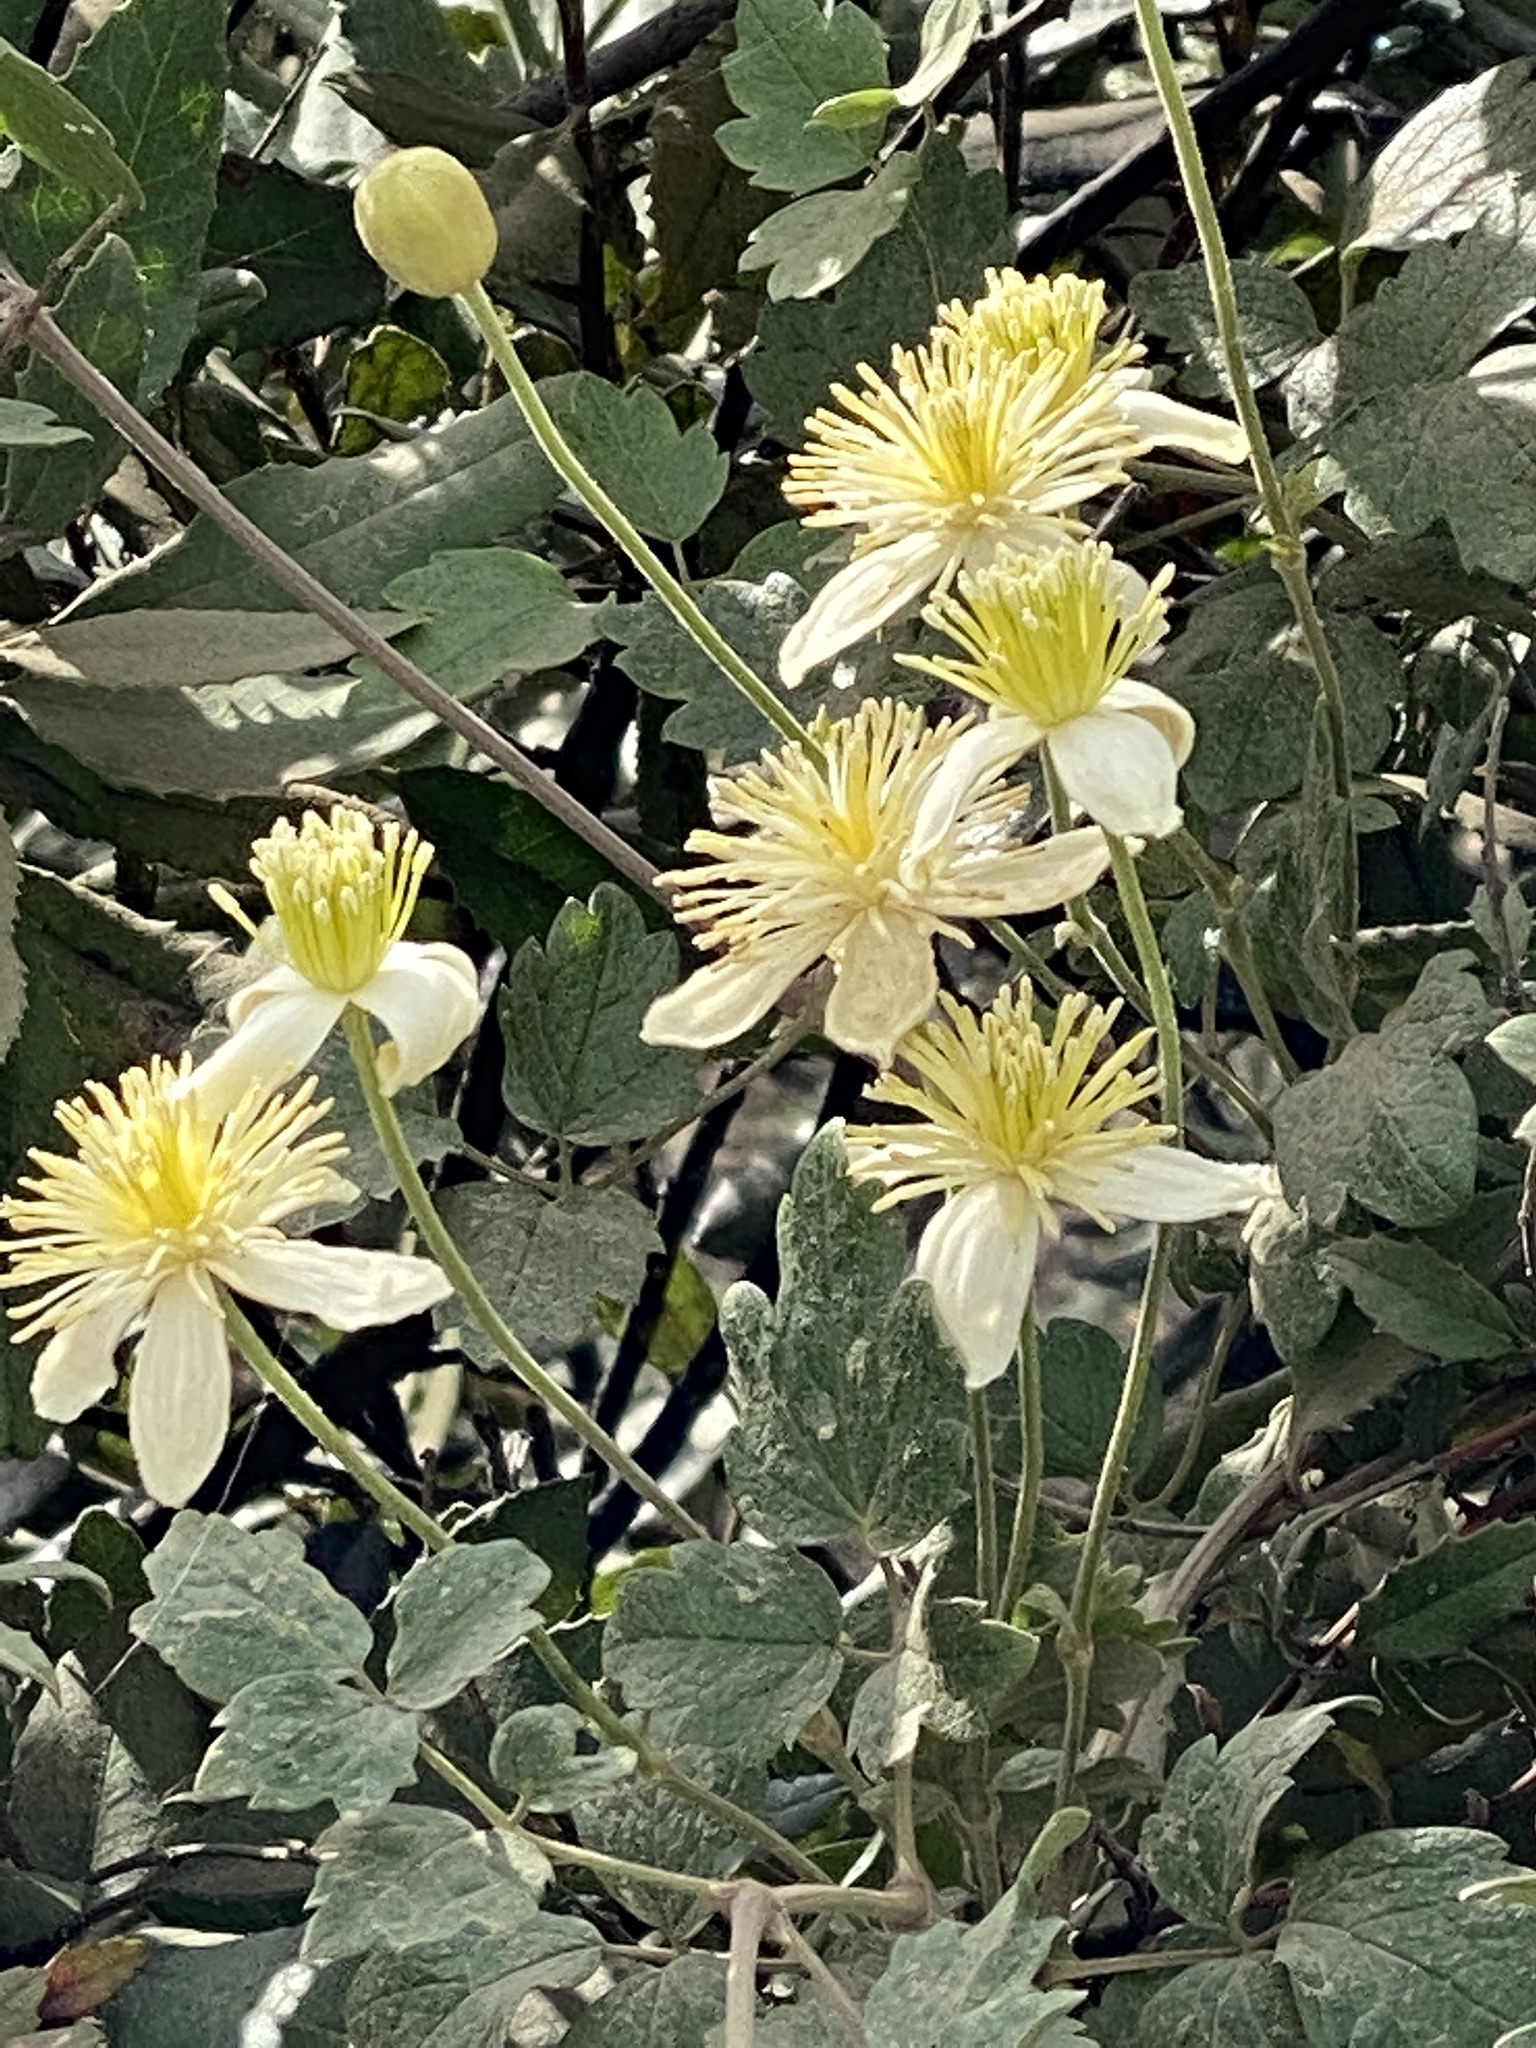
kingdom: Plantae
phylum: Tracheophyta
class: Magnoliopsida
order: Ranunculales
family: Ranunculaceae
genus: Clematis
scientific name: Clematis lasiantha
